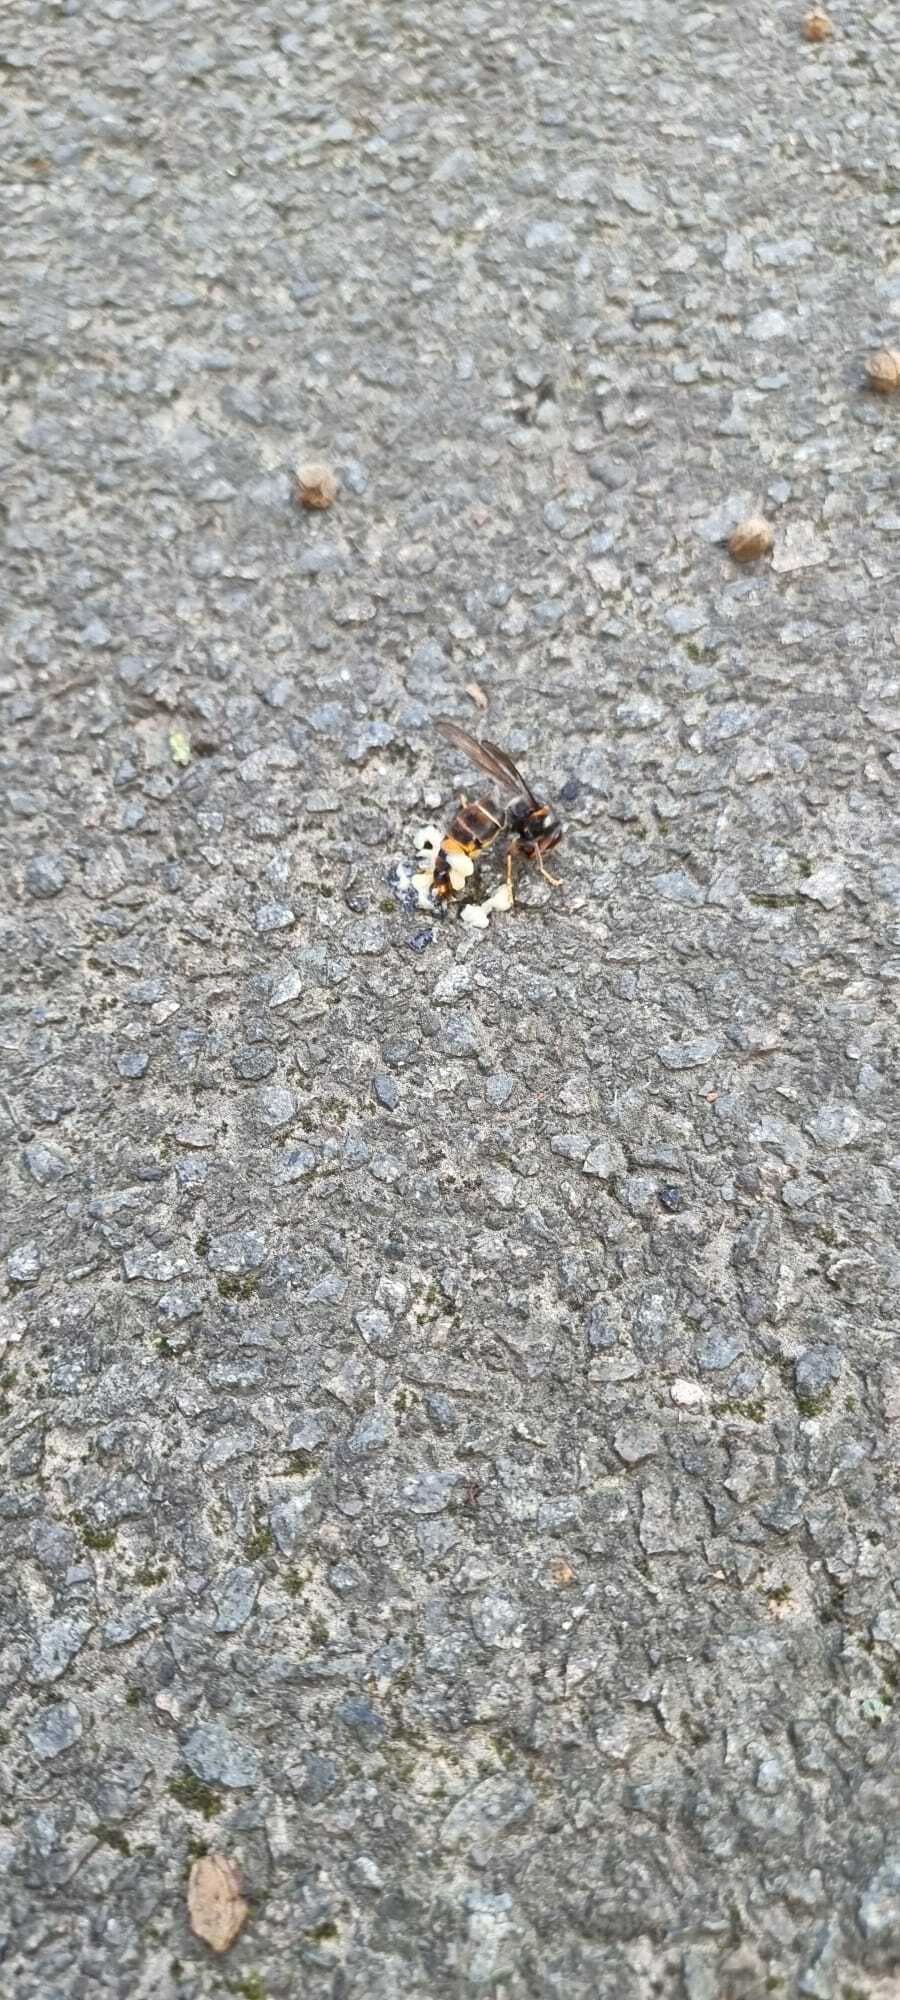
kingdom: Animalia
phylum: Arthropoda
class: Insecta
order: Hymenoptera
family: Vespidae
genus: Vespa
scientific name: Vespa velutina
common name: Asian hornet
